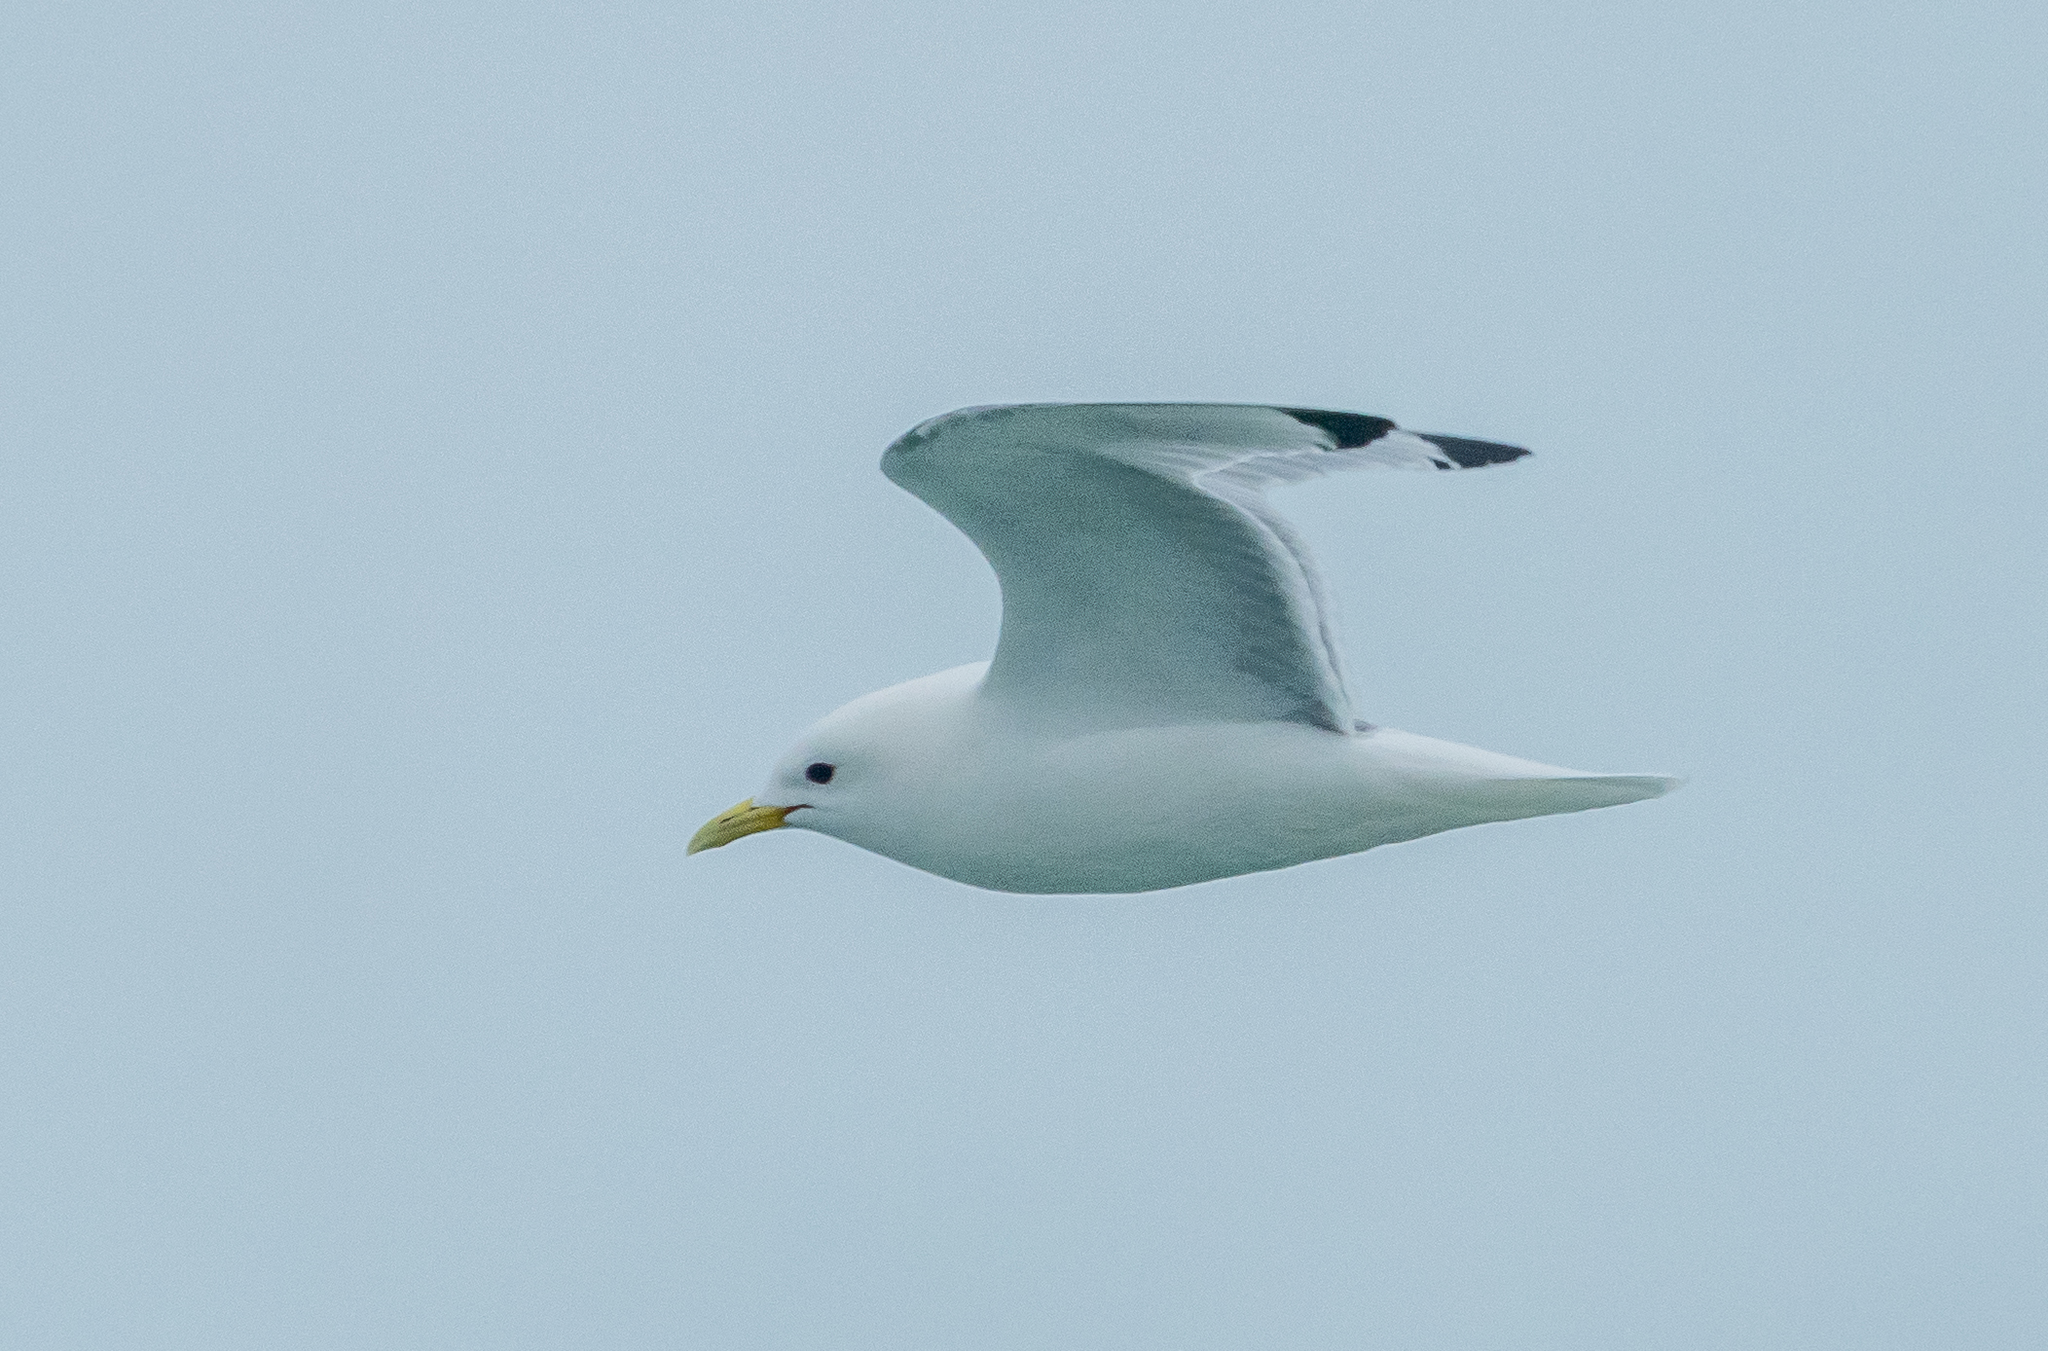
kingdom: Animalia
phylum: Chordata
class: Aves
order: Charadriiformes
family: Laridae
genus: Rissa
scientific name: Rissa tridactyla
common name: Black-legged kittiwake
